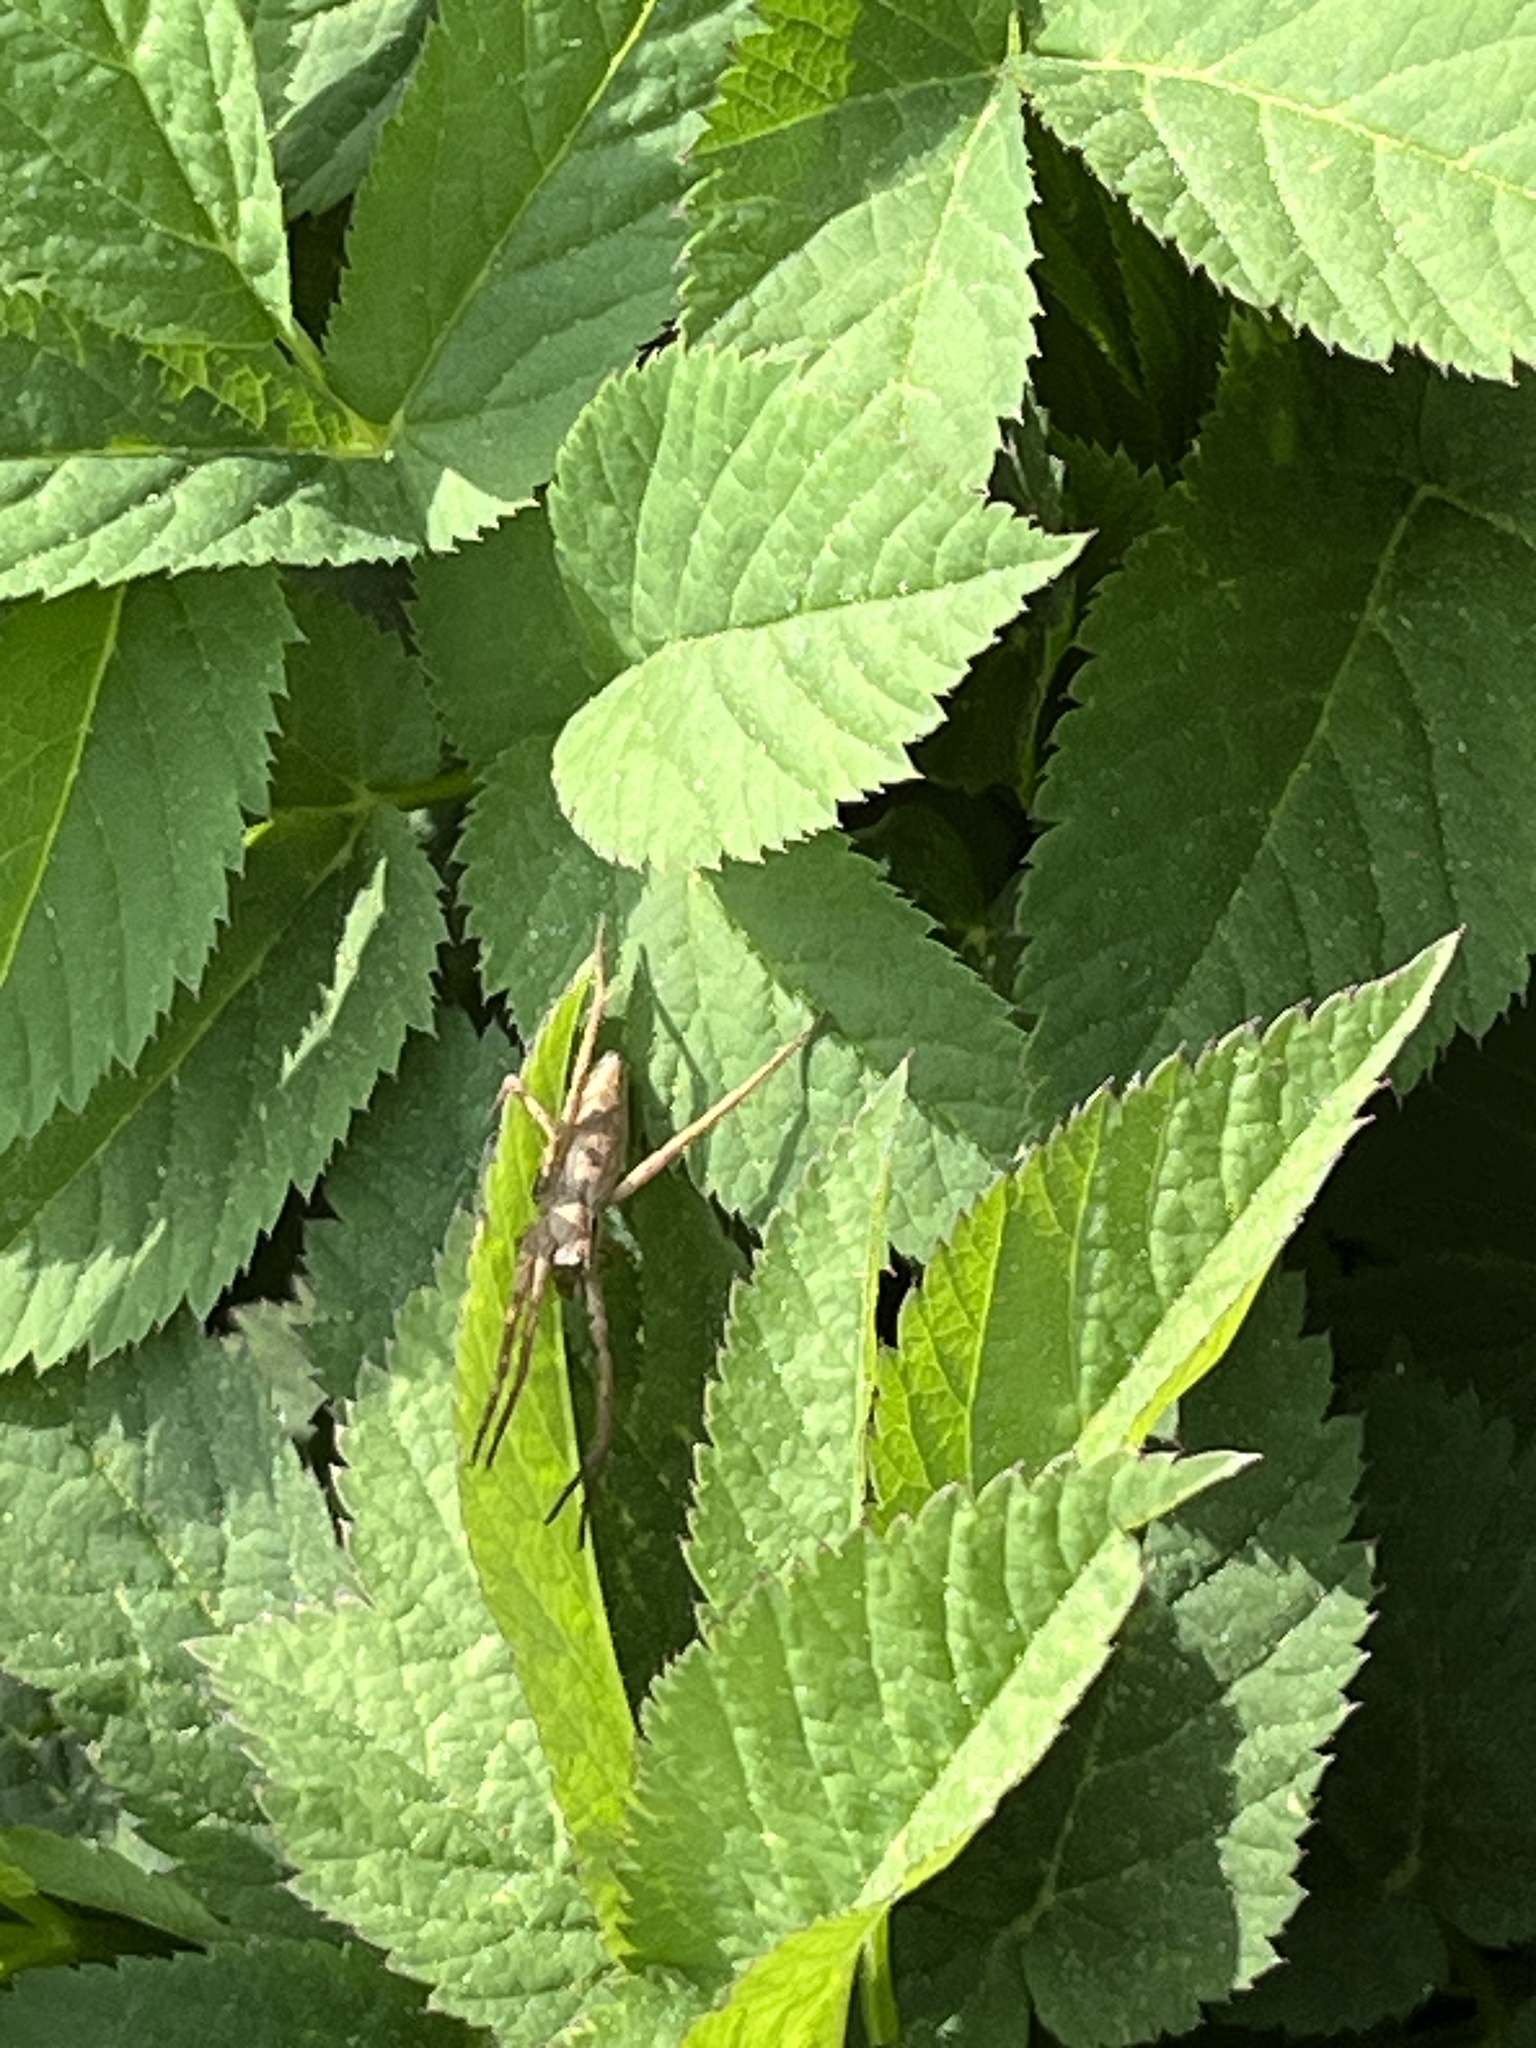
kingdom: Animalia
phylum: Arthropoda
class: Arachnida
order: Araneae
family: Pisauridae
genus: Pisaura
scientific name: Pisaura mirabilis
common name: Tent spider
